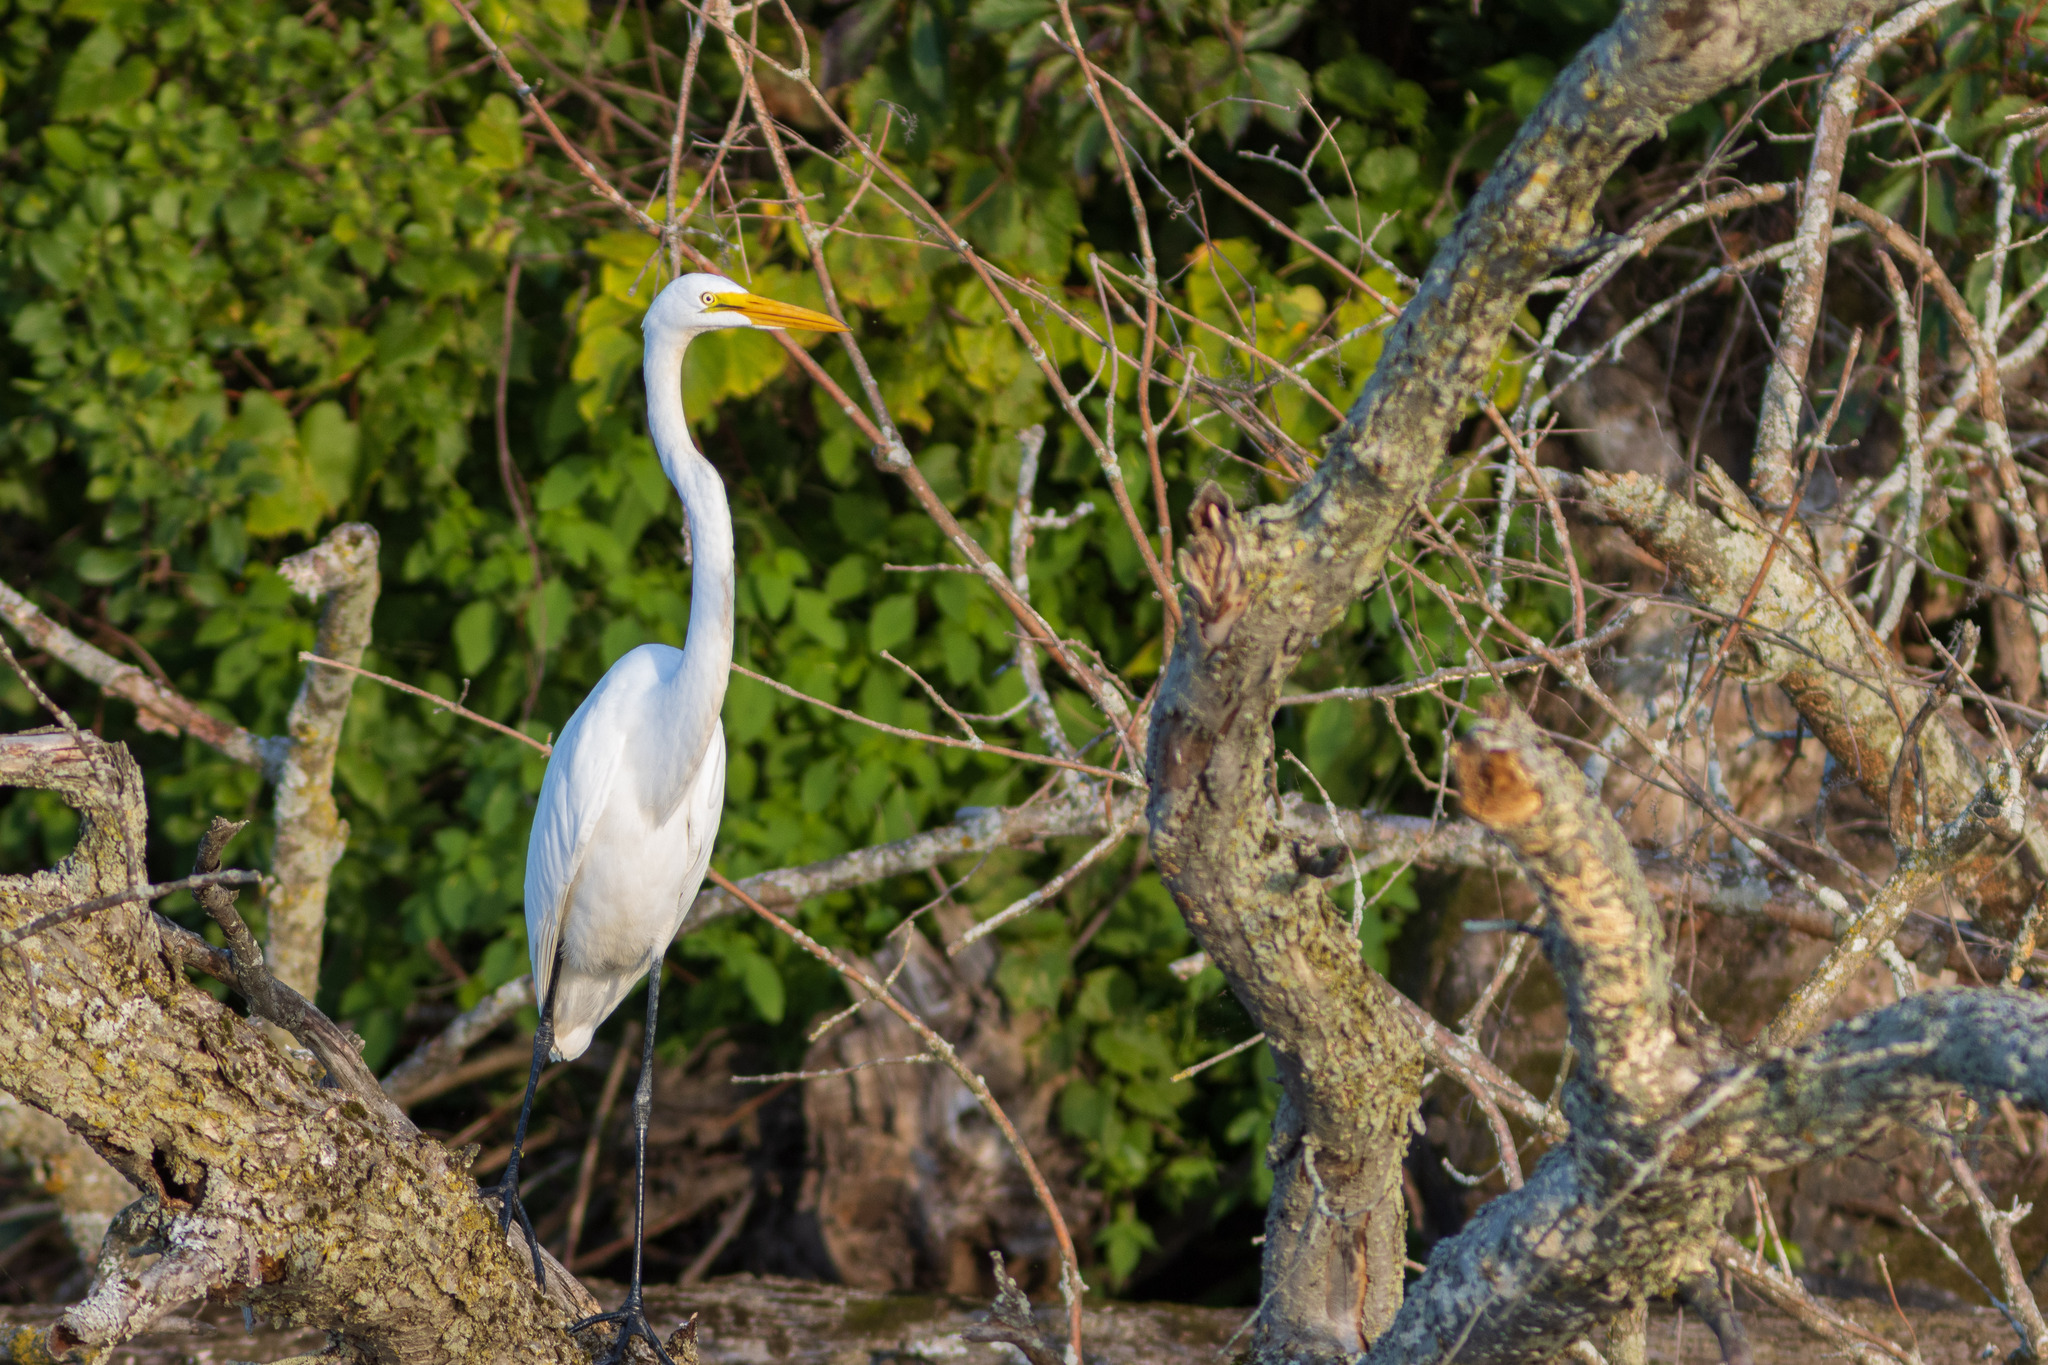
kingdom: Animalia
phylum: Chordata
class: Aves
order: Pelecaniformes
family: Ardeidae
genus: Ardea
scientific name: Ardea alba
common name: Great egret
